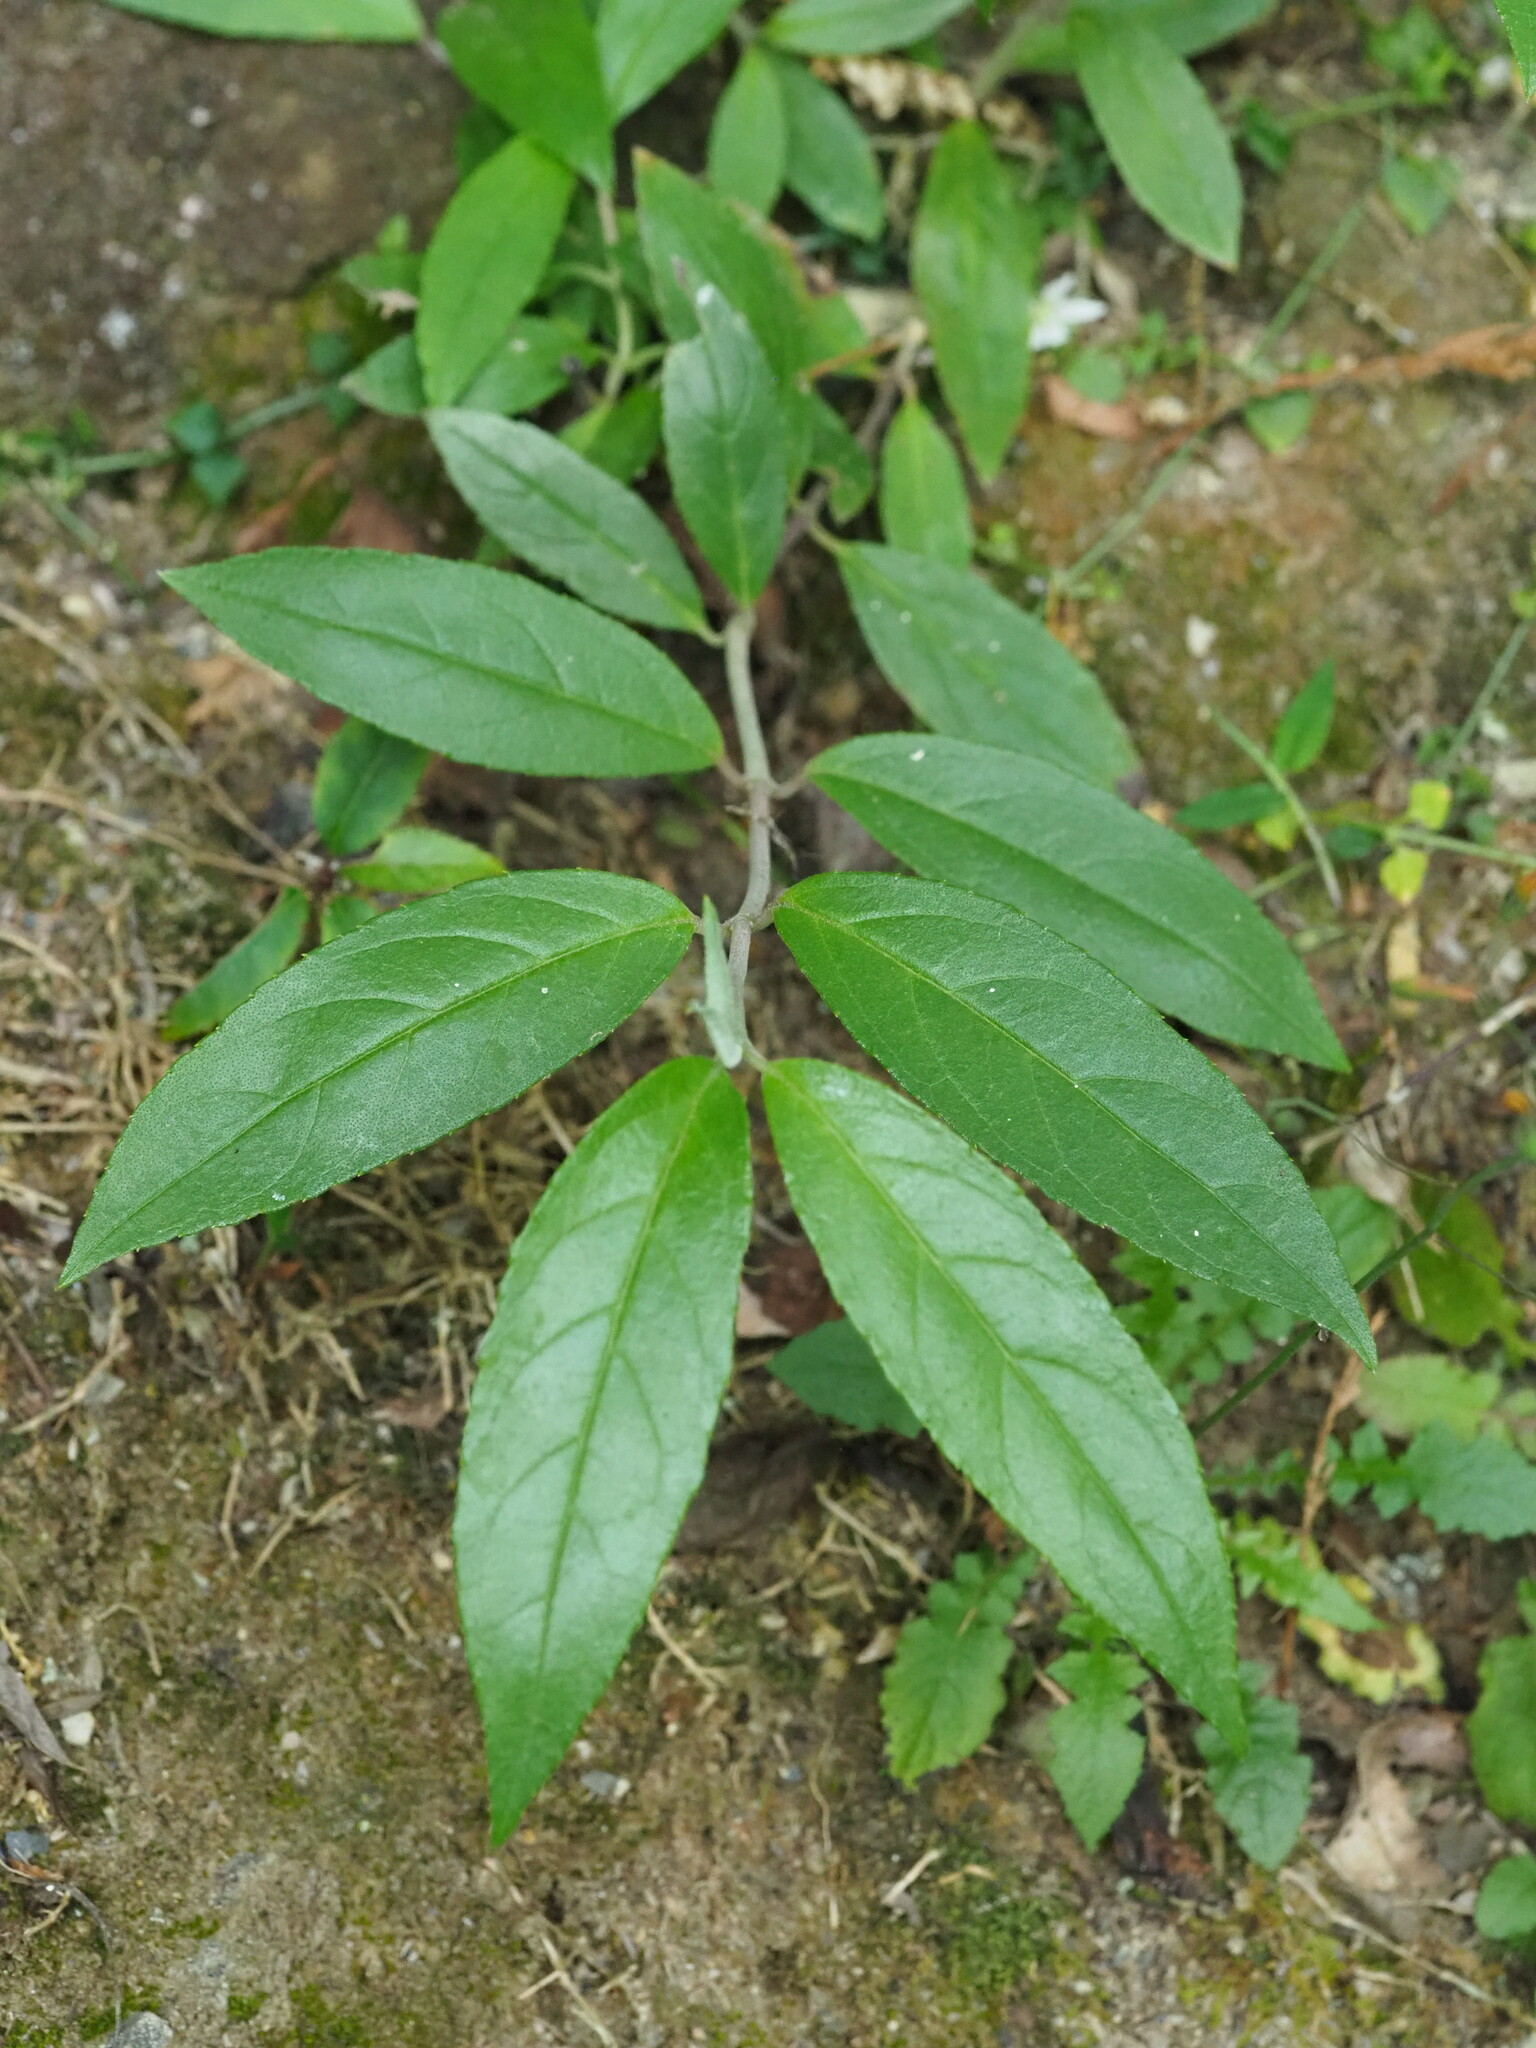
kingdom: Plantae
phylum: Tracheophyta
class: Magnoliopsida
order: Cornales
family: Hydrangeaceae
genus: Deutzia
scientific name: Deutzia pulchra
